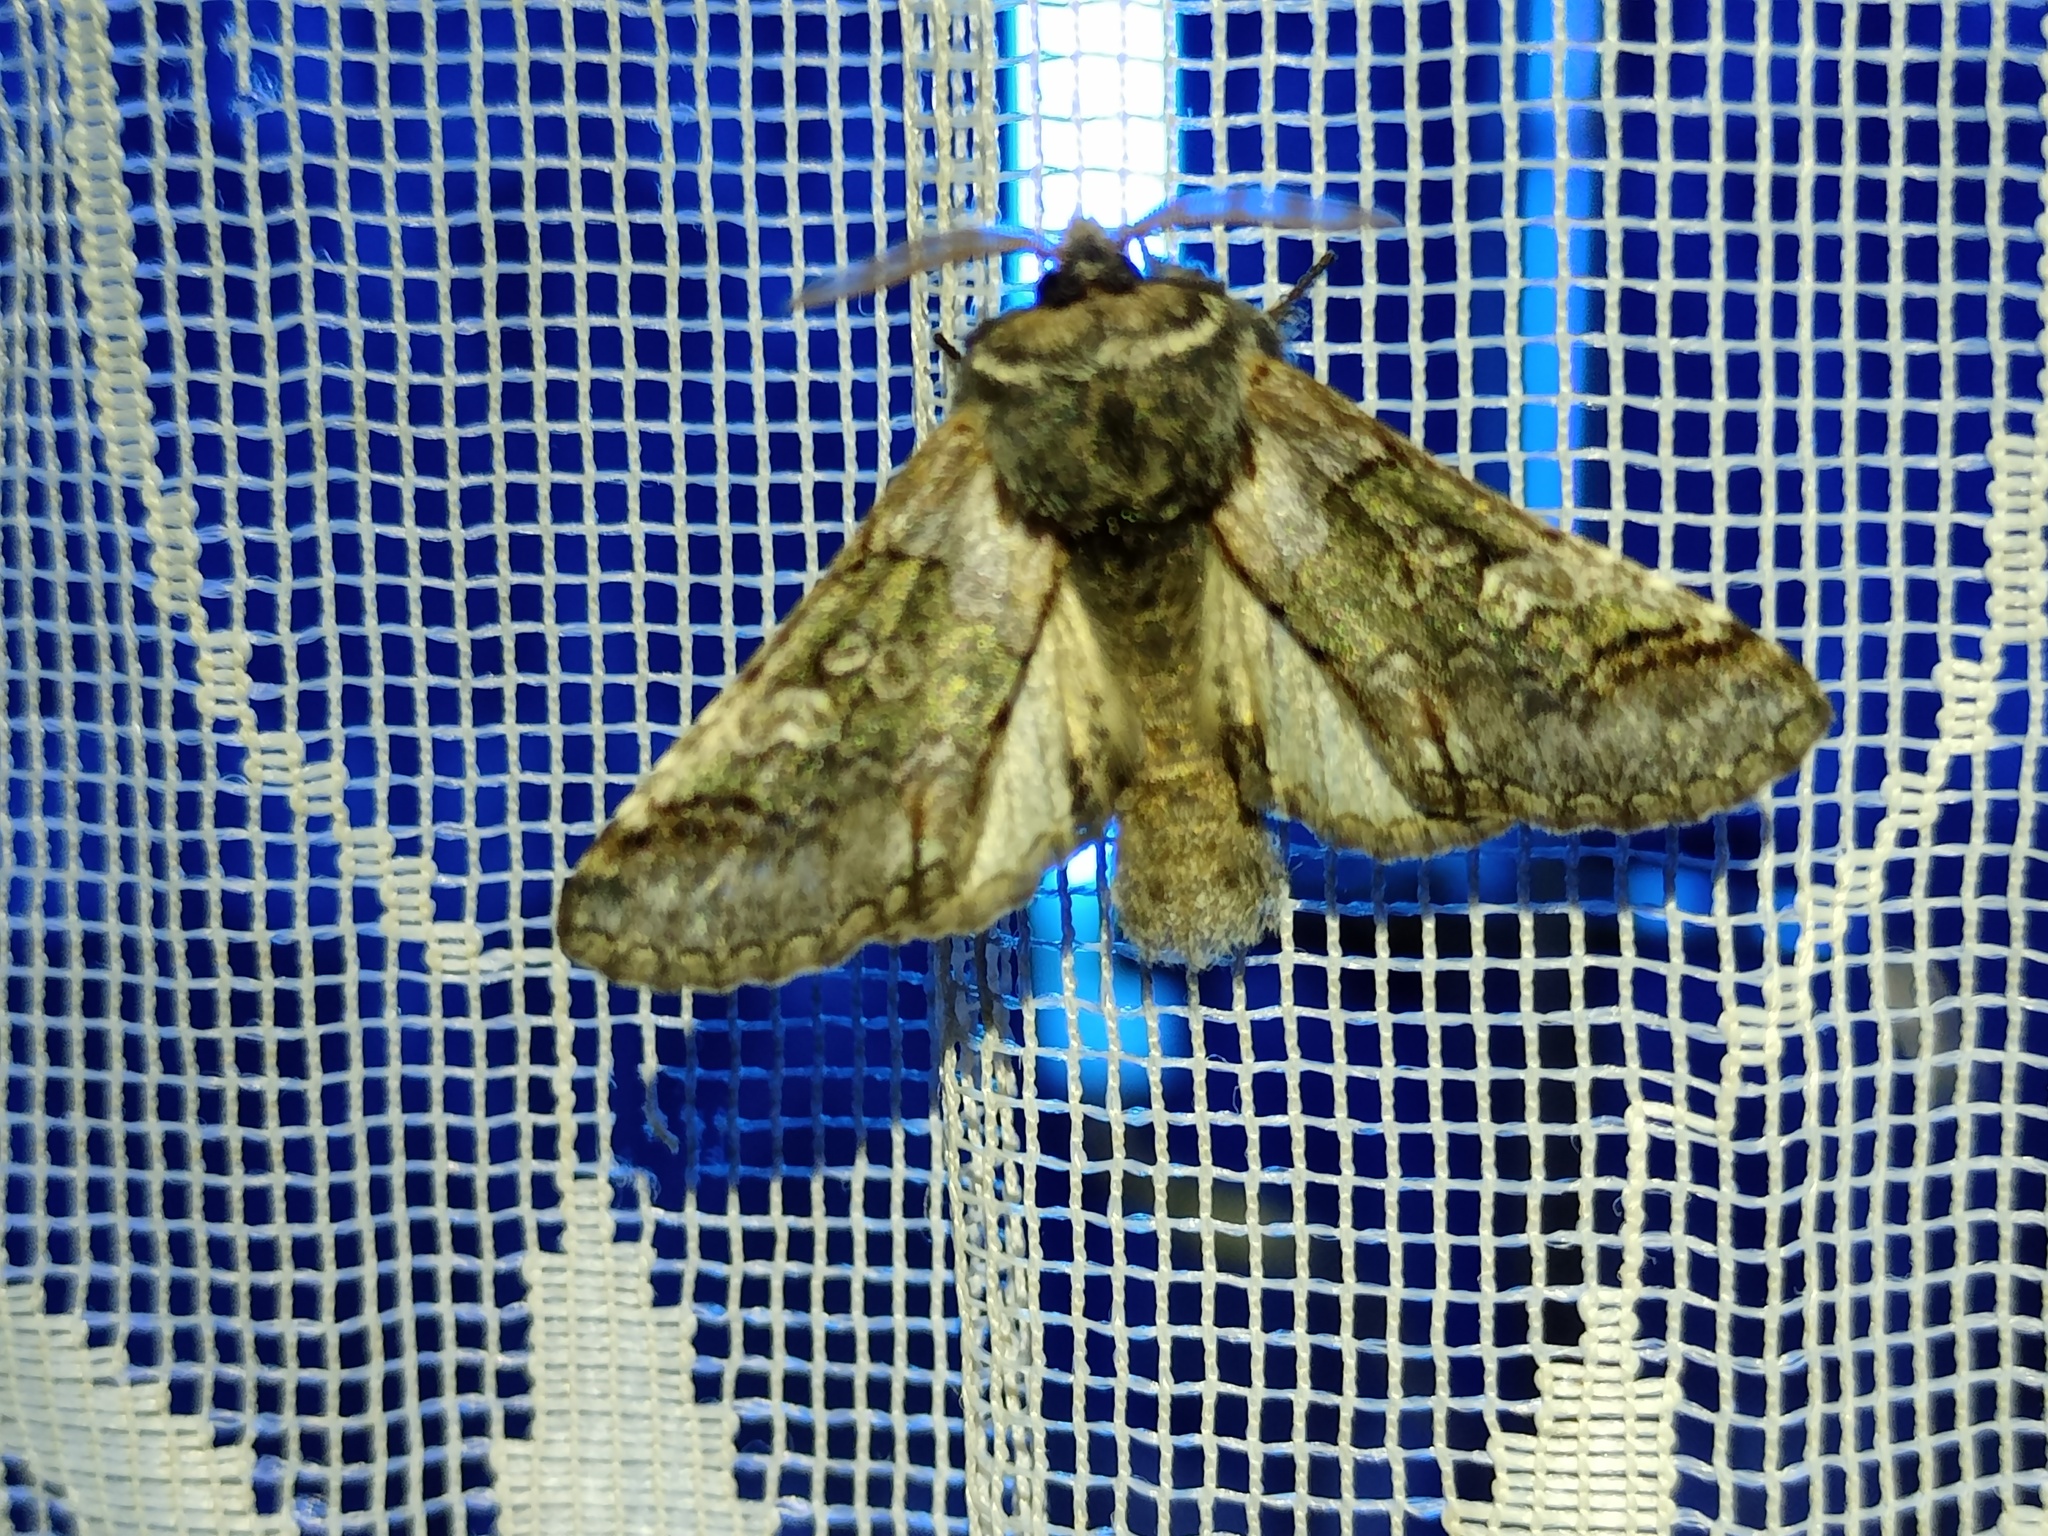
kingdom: Animalia
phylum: Arthropoda
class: Insecta
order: Lepidoptera
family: Noctuidae
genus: Diloba
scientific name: Diloba caeruleocephala
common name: Figure of eight
